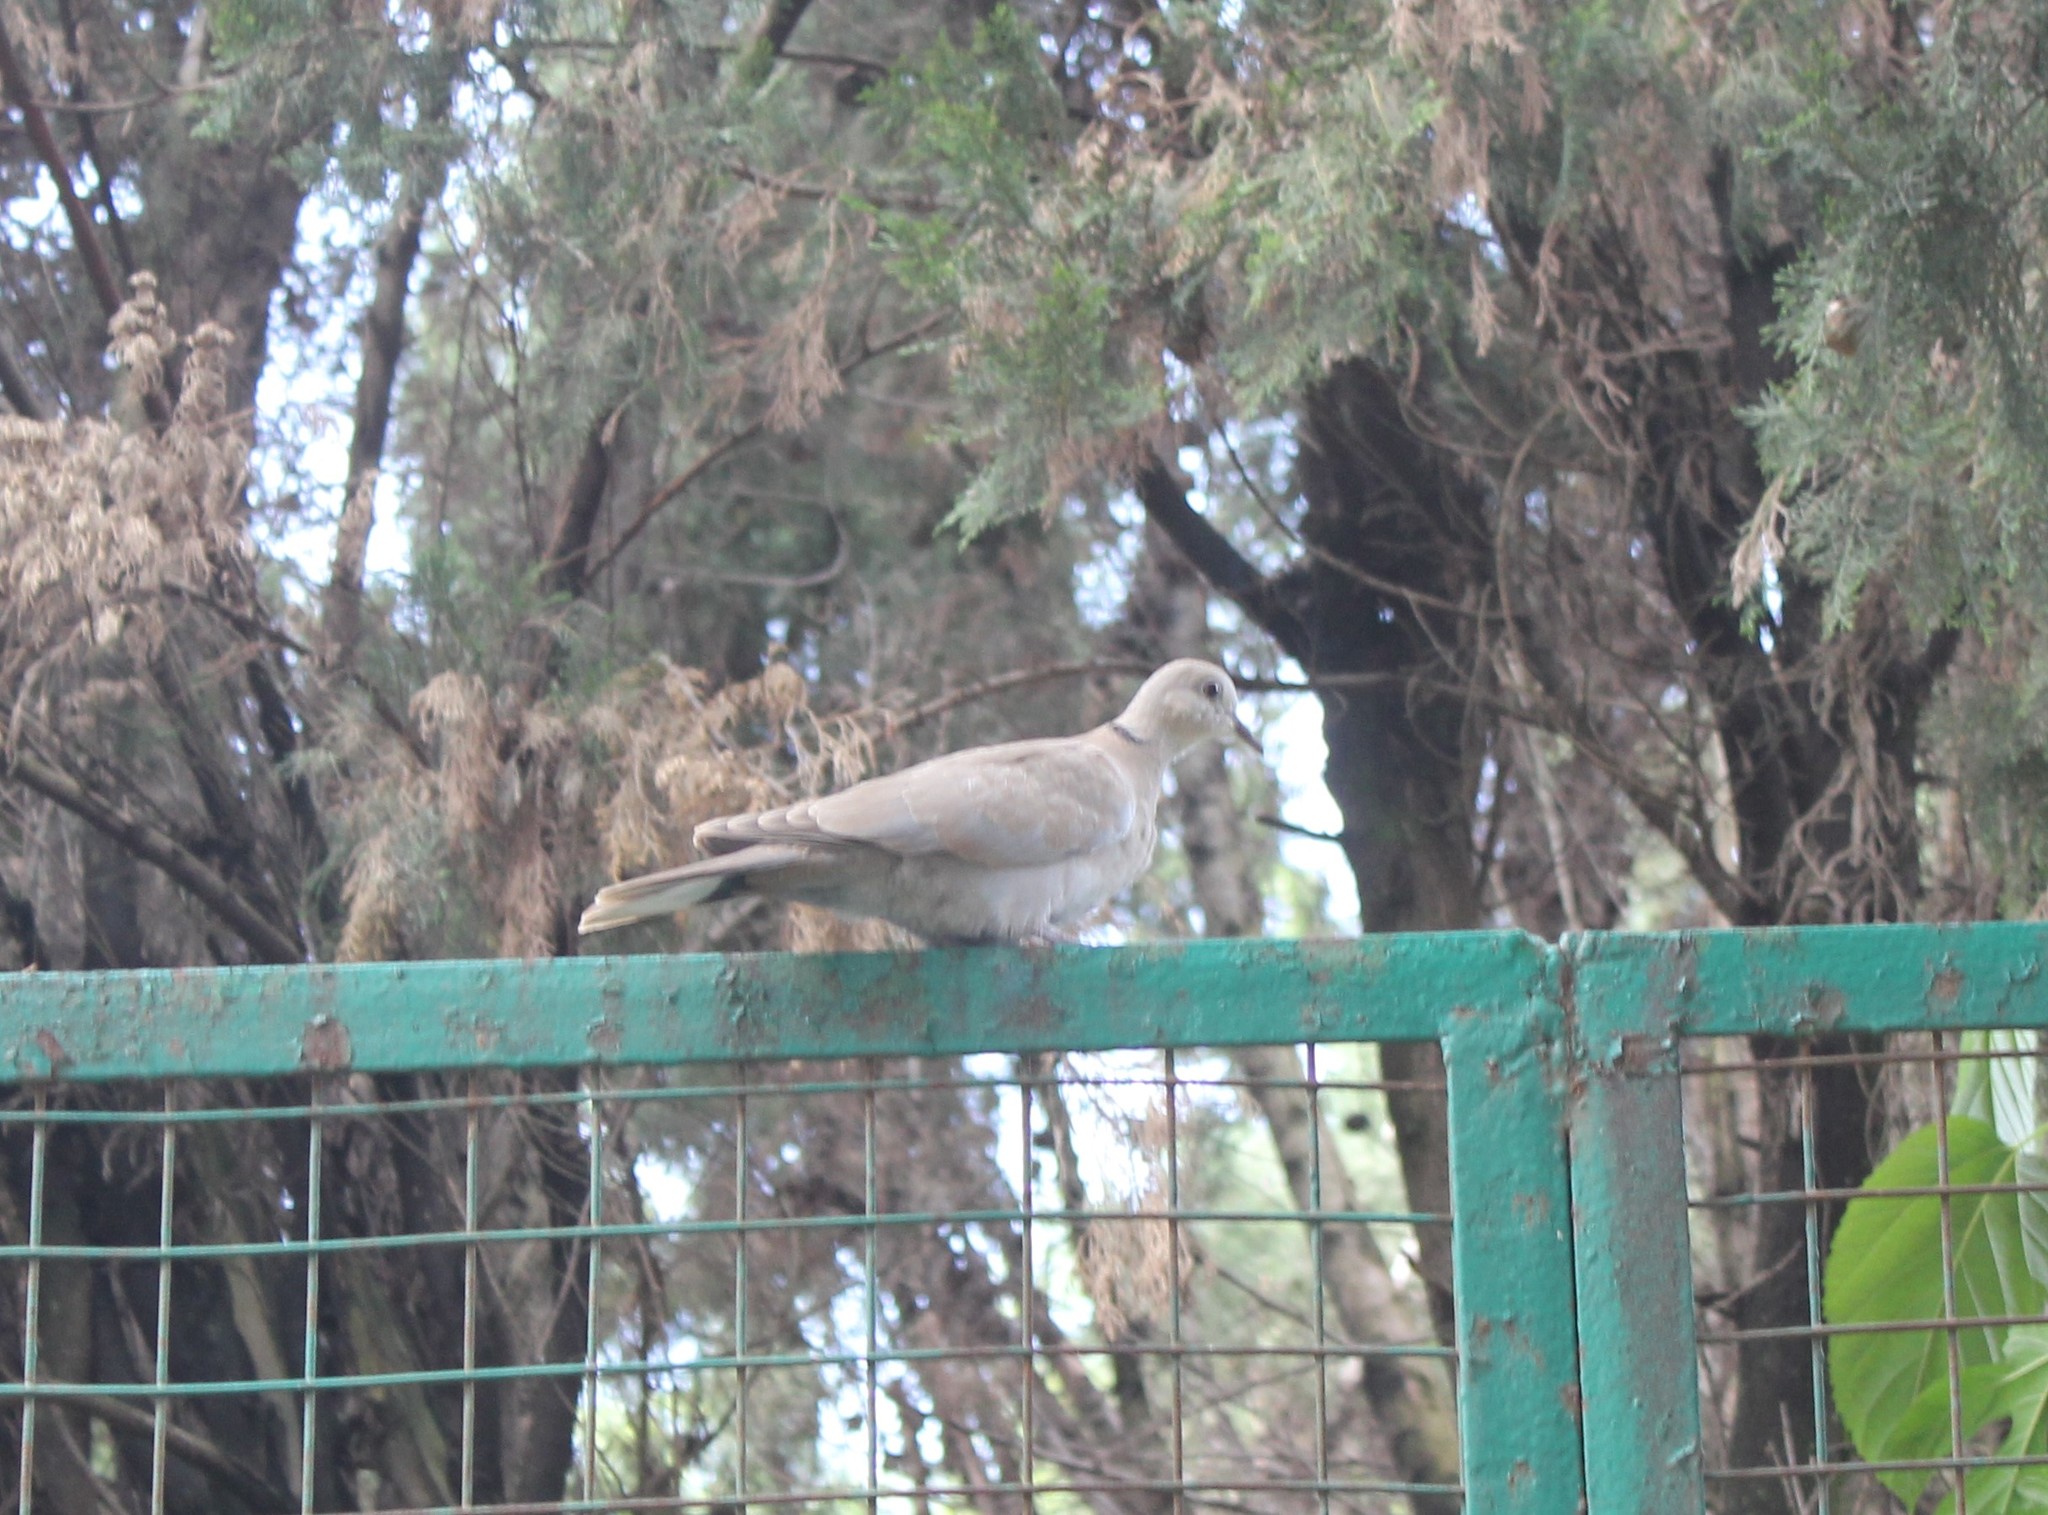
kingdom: Animalia
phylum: Chordata
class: Aves
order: Columbiformes
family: Columbidae
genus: Streptopelia
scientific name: Streptopelia decaocto
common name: Eurasian collared dove
